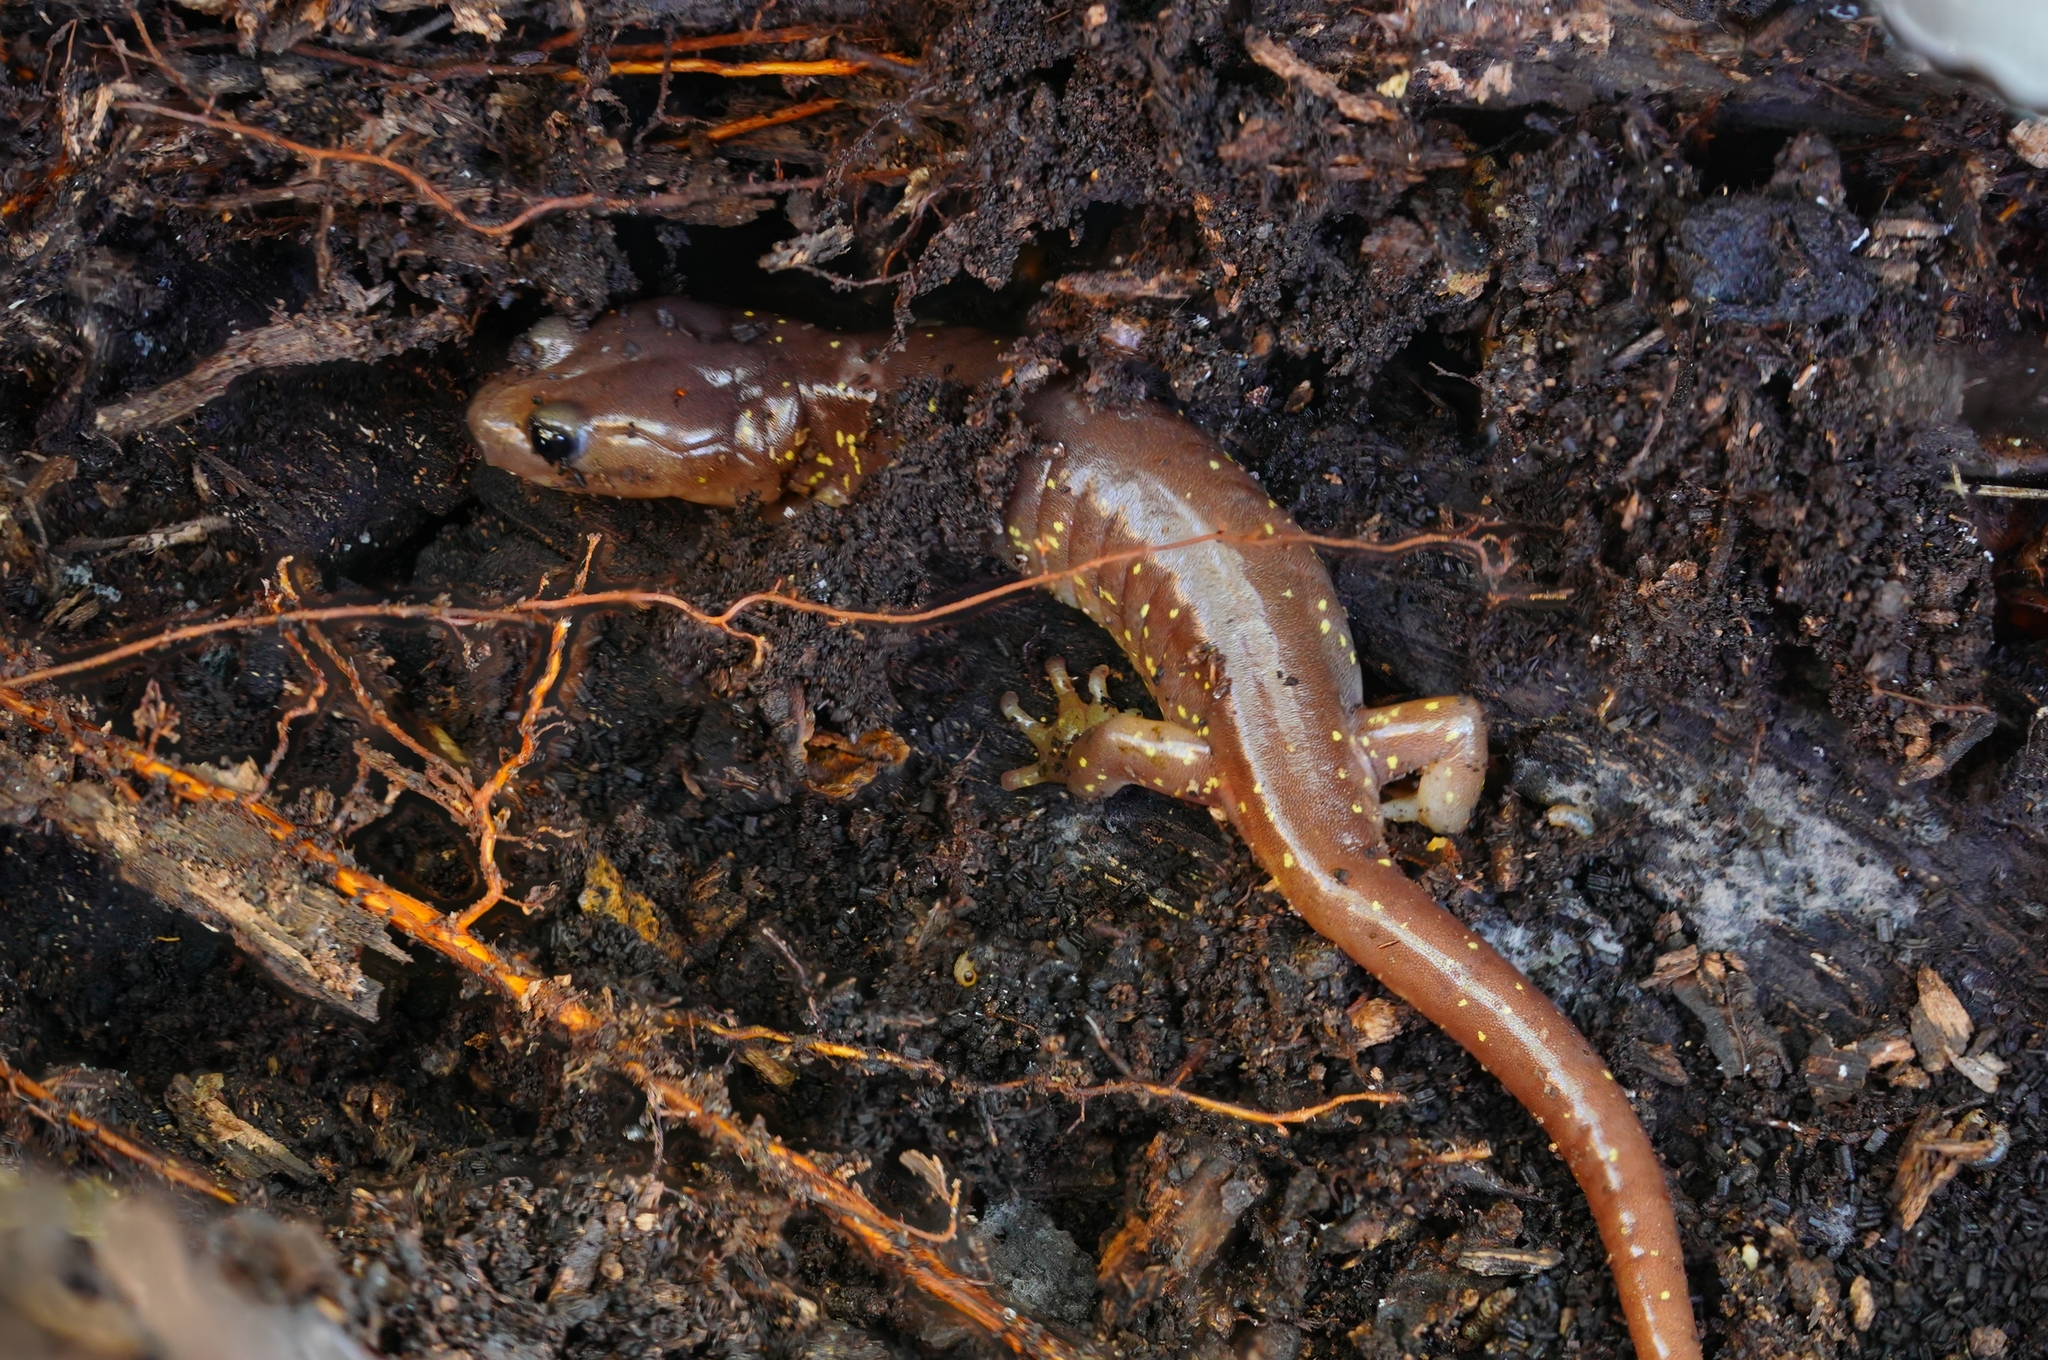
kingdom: Animalia
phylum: Chordata
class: Amphibia
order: Caudata
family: Plethodontidae
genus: Aneides
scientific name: Aneides lugubris
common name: Arboreal salamander
